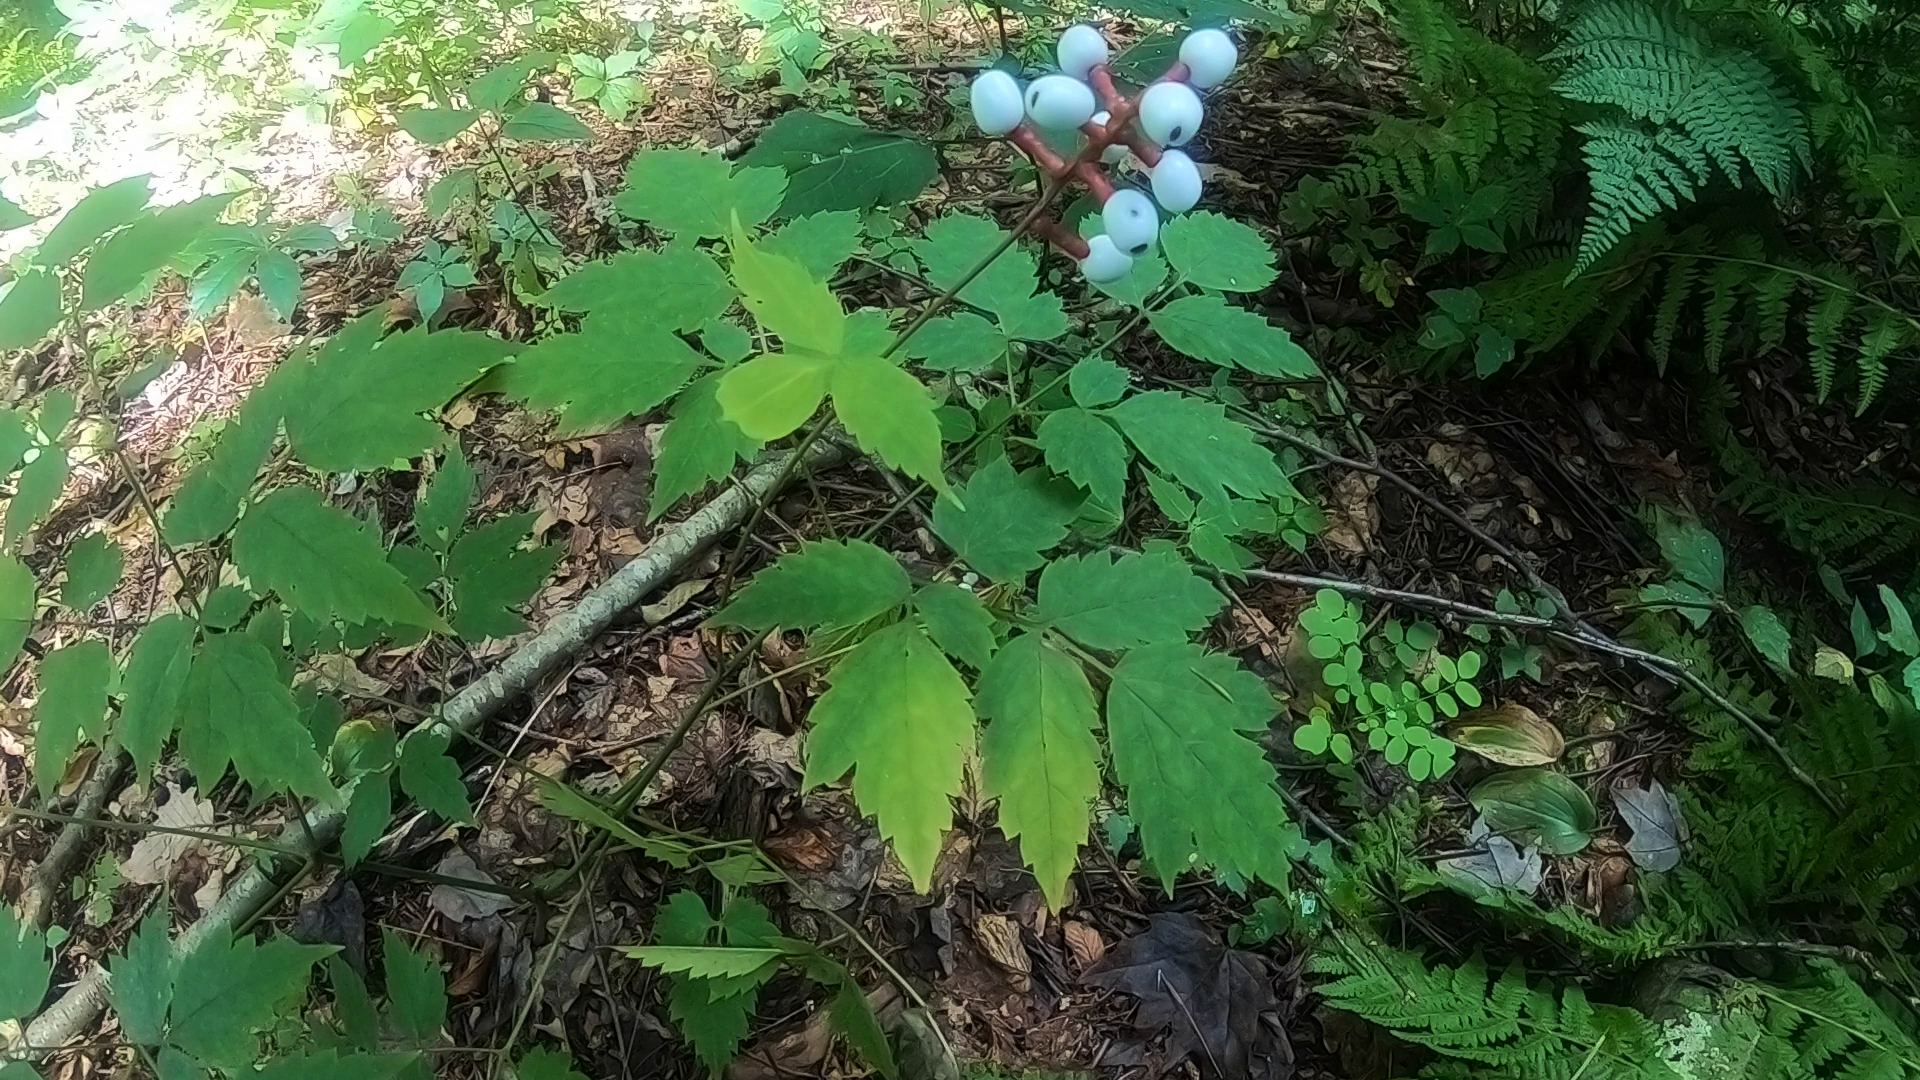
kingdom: Plantae
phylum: Tracheophyta
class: Magnoliopsida
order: Ranunculales
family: Ranunculaceae
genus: Actaea
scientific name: Actaea pachypoda
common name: Doll's-eyes
